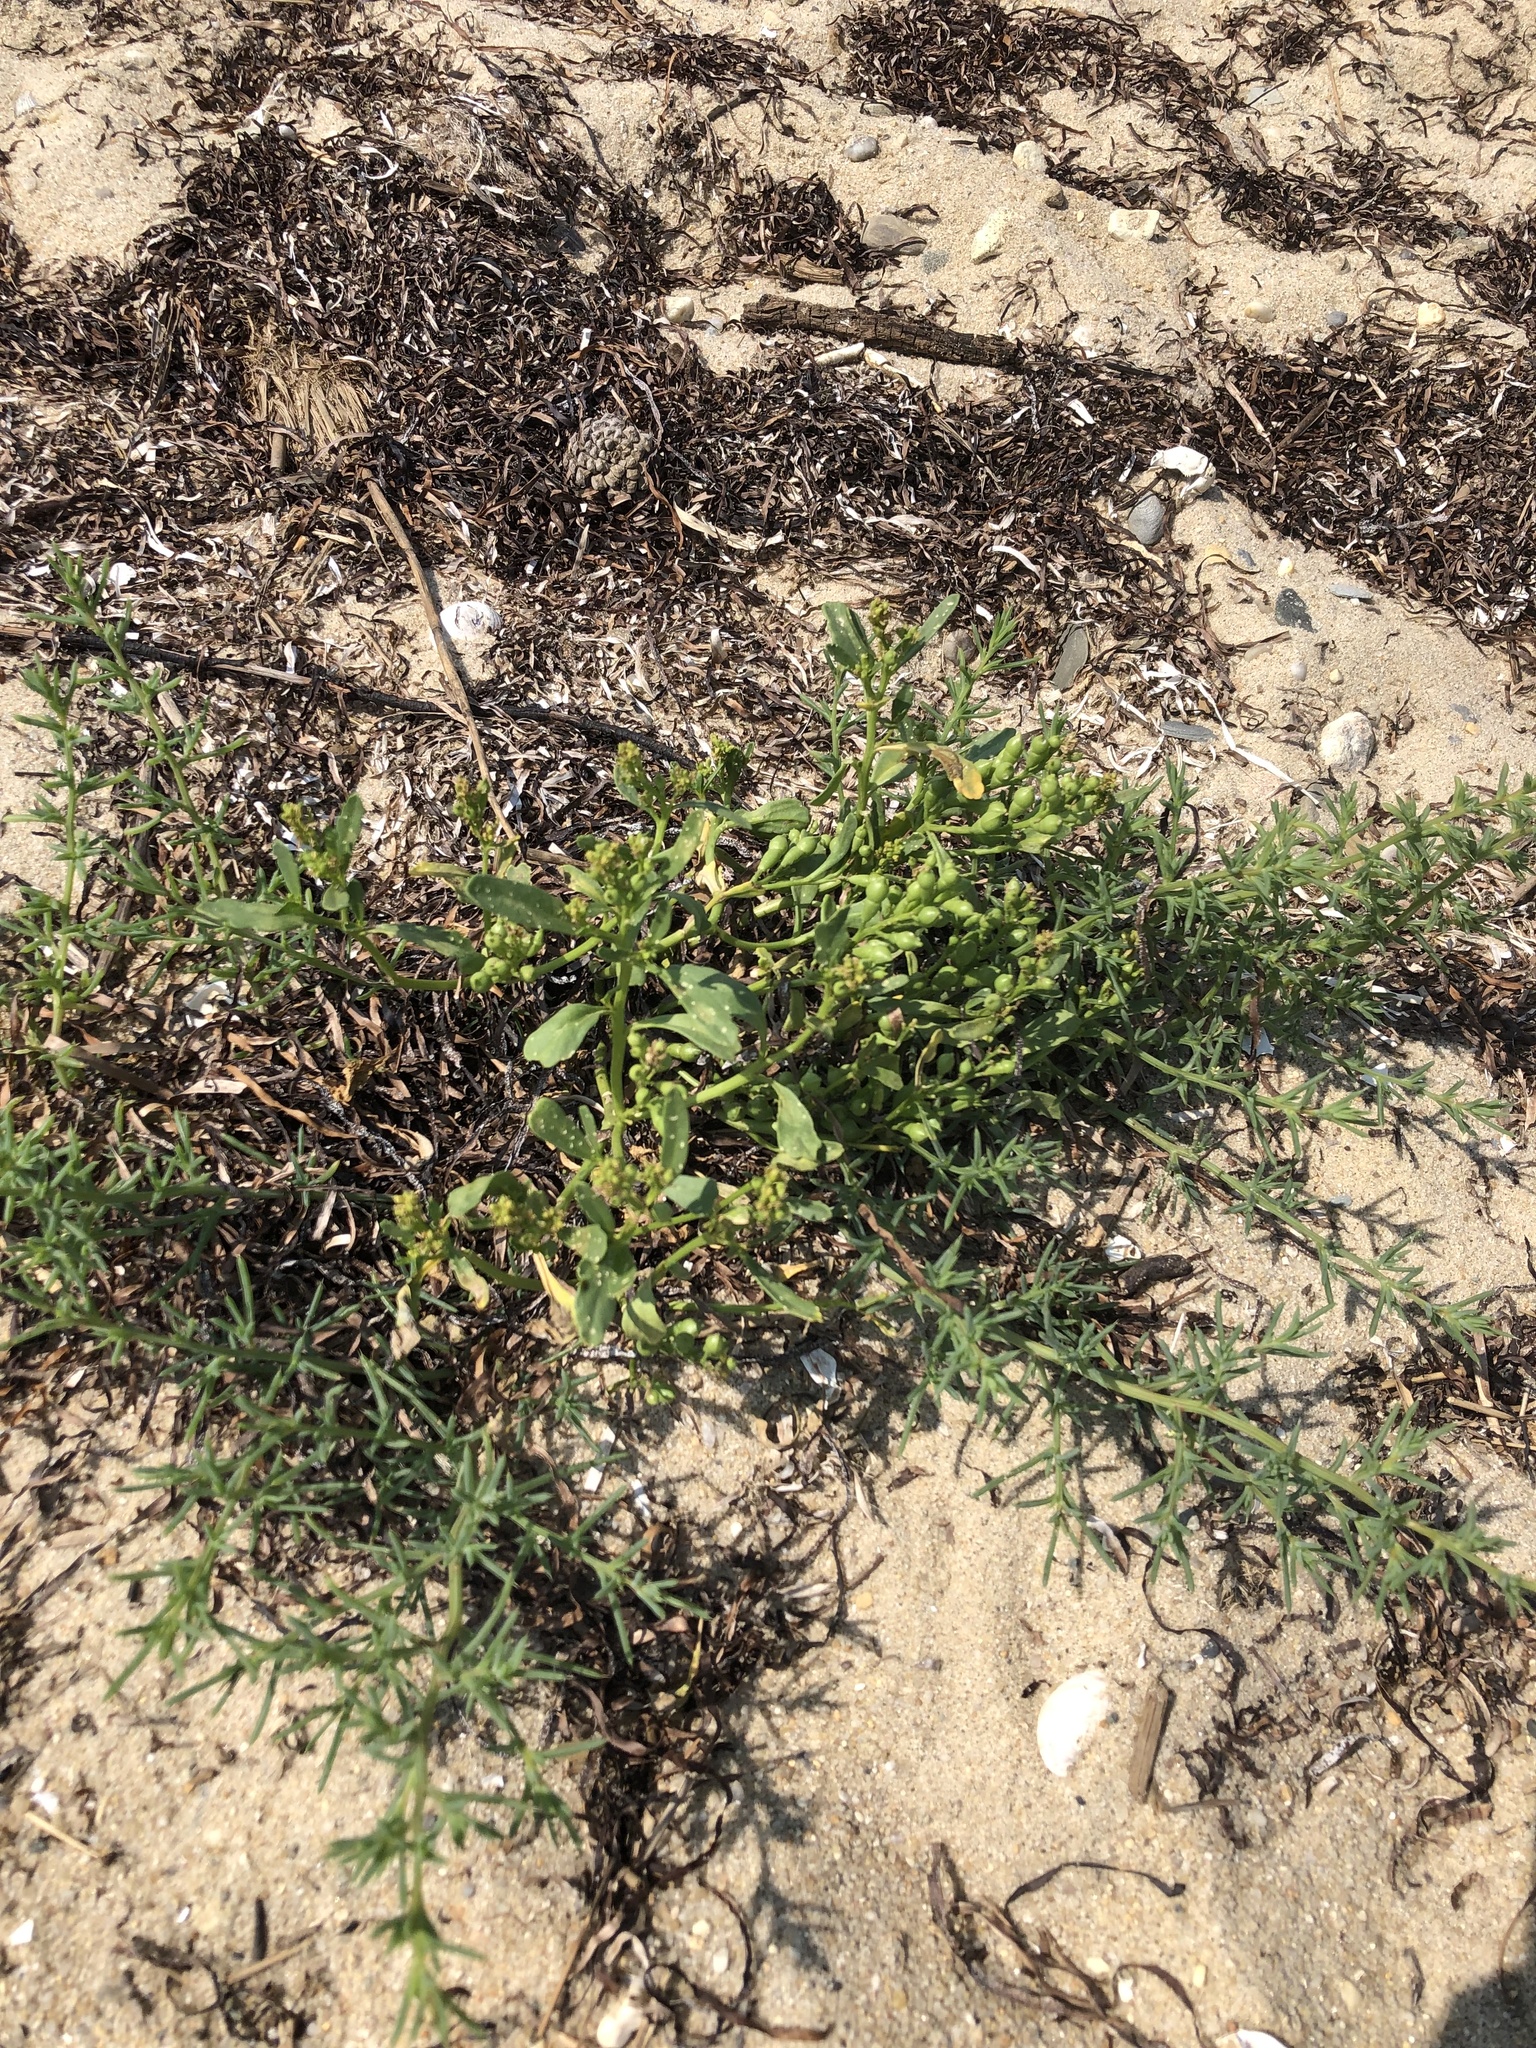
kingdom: Plantae
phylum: Tracheophyta
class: Magnoliopsida
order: Brassicales
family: Brassicaceae
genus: Cakile
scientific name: Cakile edentula
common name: American sea rocket
